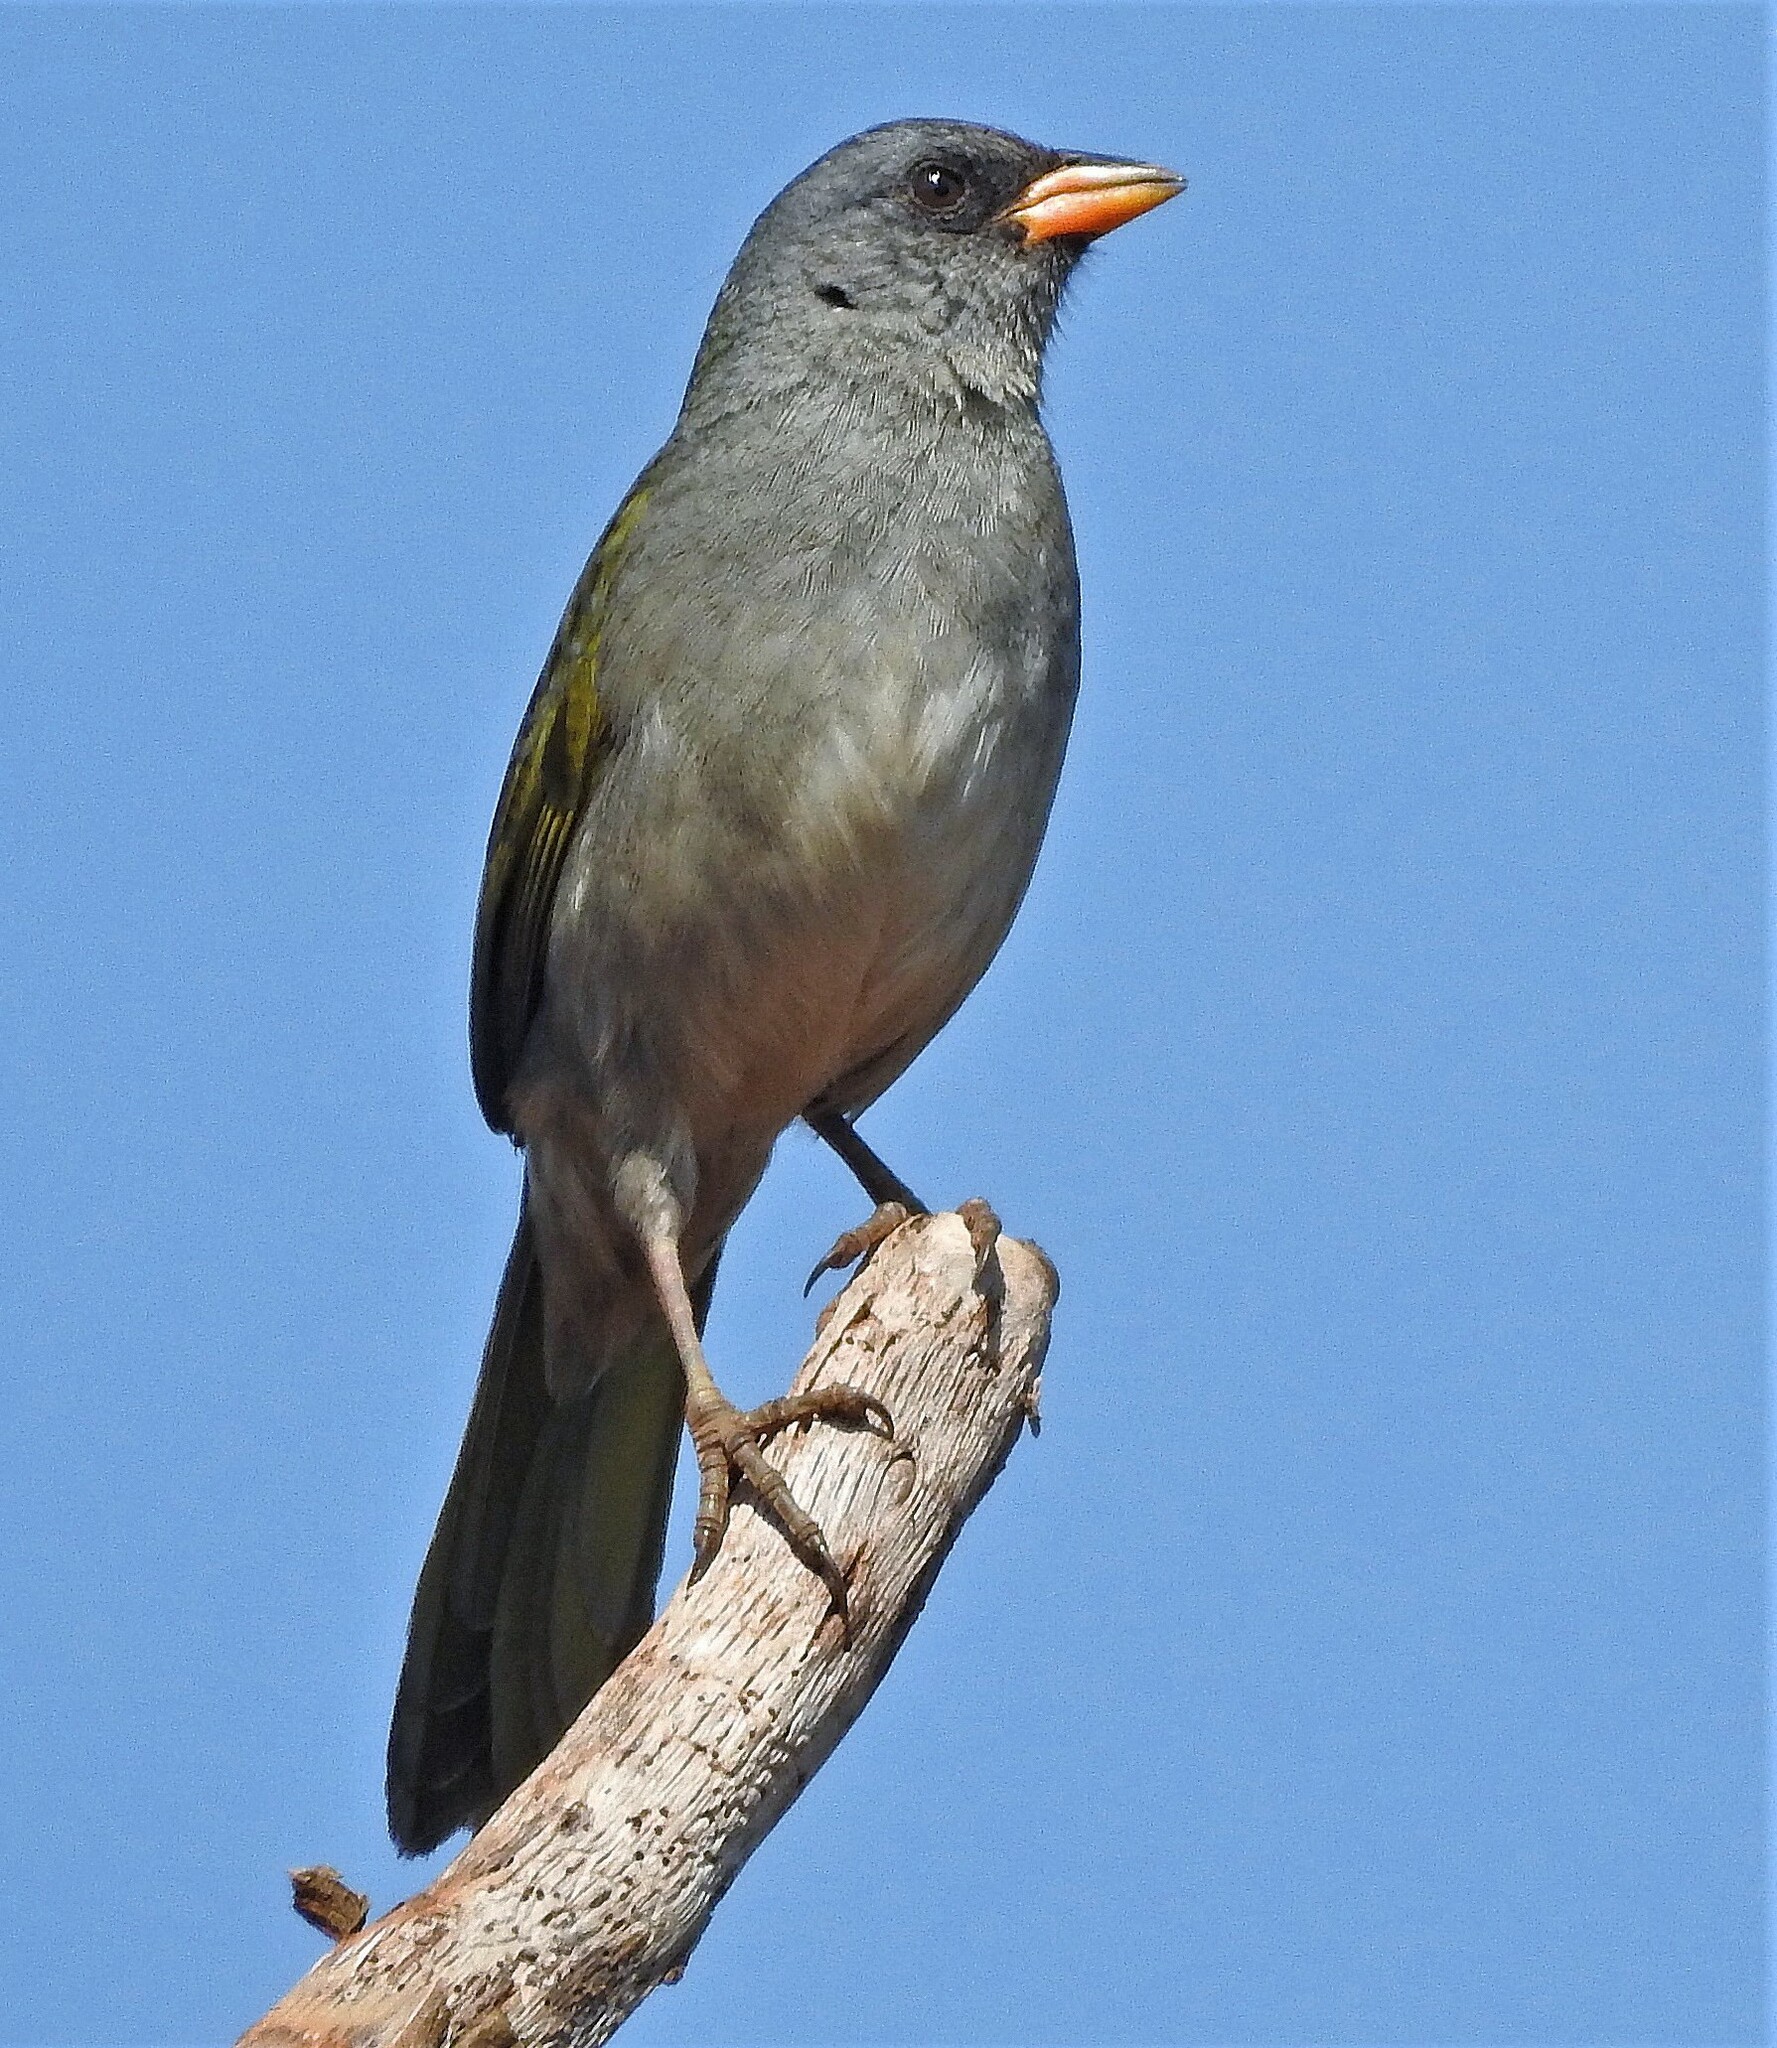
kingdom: Animalia
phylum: Chordata
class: Aves
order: Passeriformes
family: Thraupidae
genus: Embernagra
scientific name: Embernagra platensis
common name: Pampa finch
